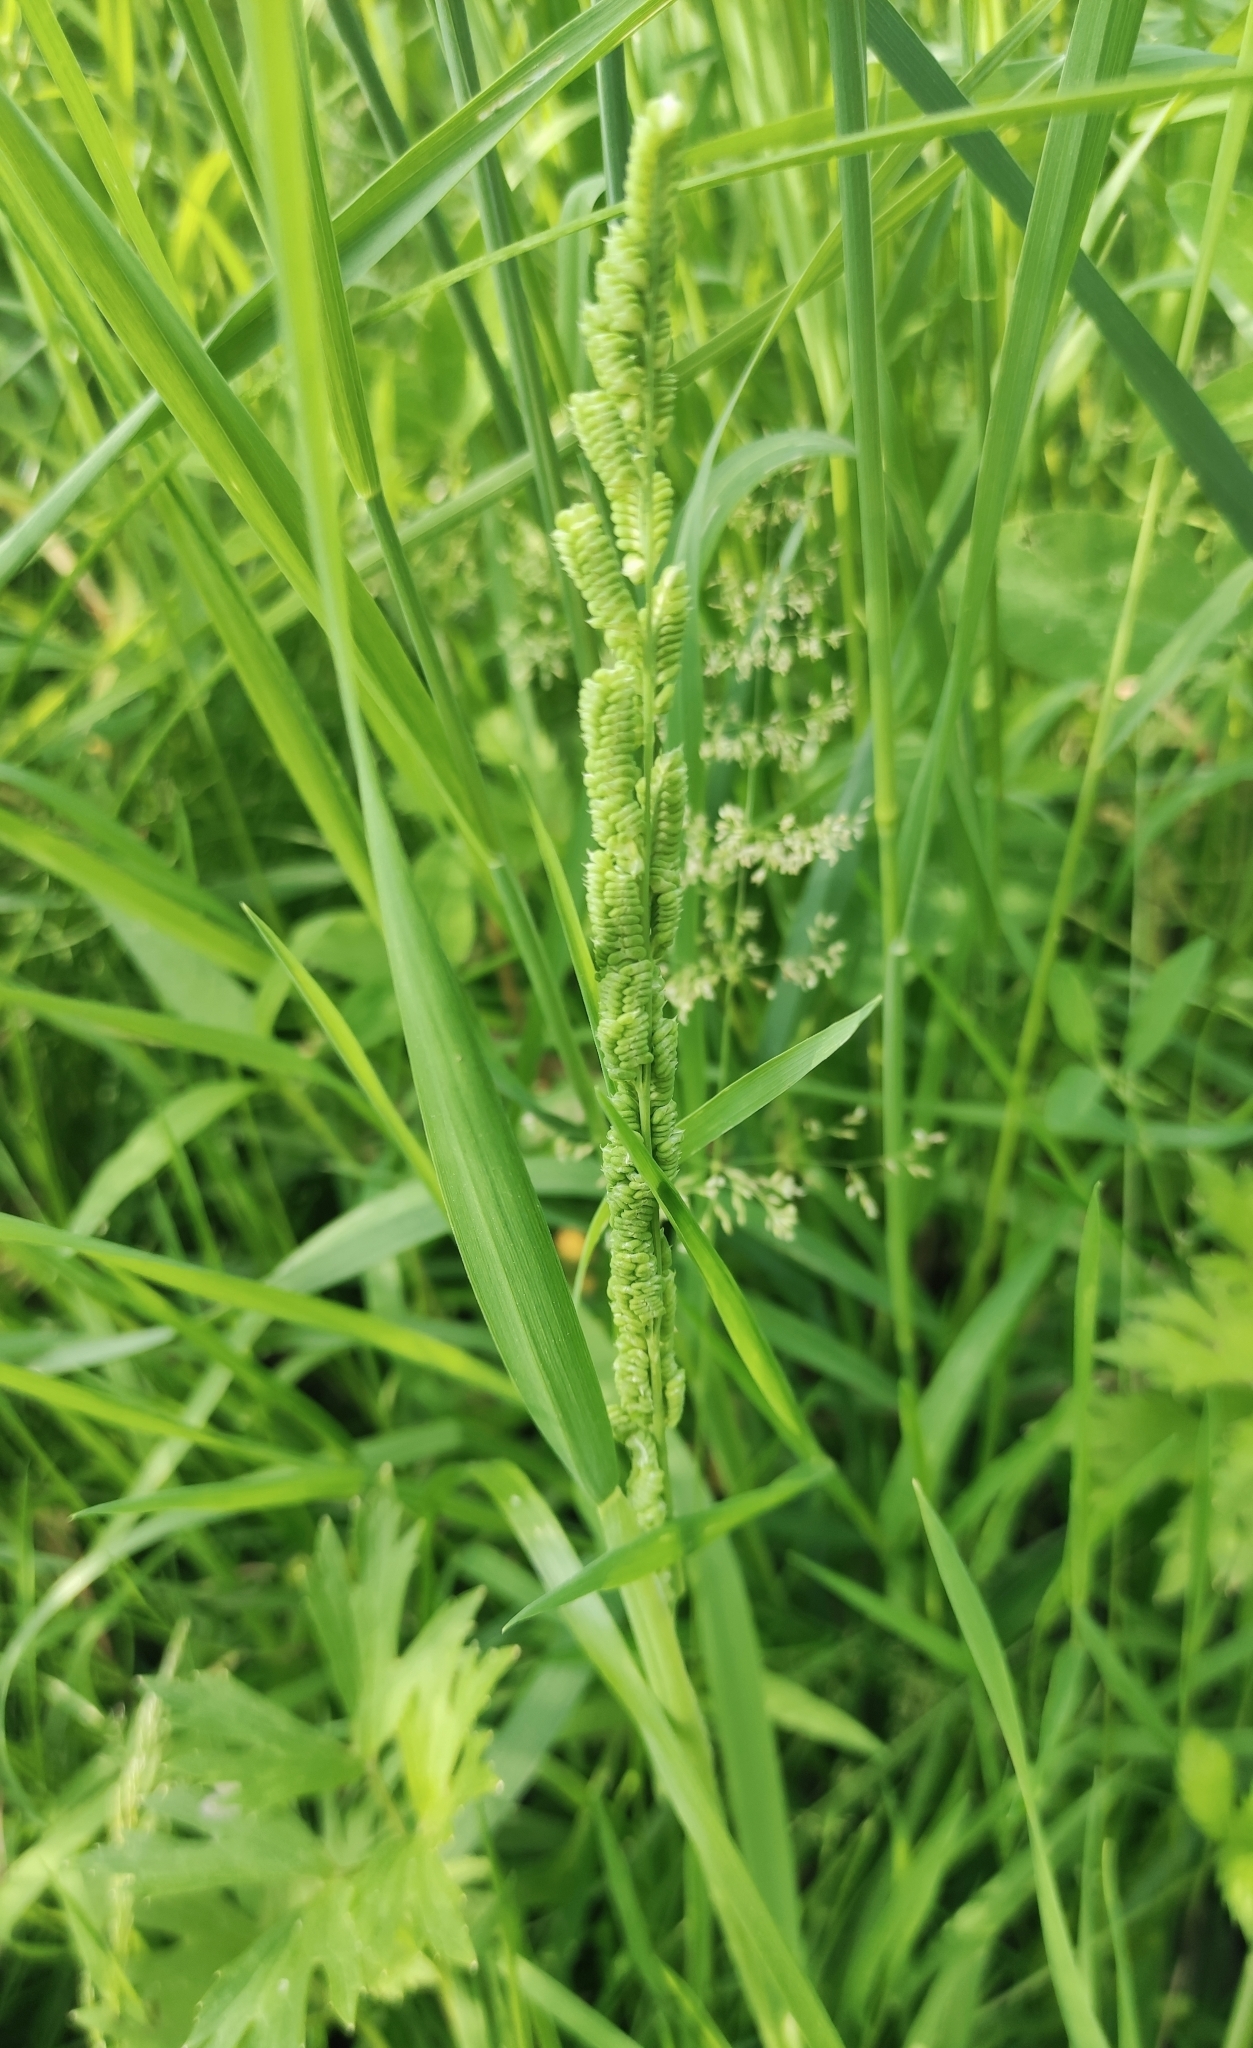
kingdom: Plantae
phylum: Tracheophyta
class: Liliopsida
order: Poales
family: Poaceae
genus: Beckmannia
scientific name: Beckmannia syzigachne
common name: American slough-grass
